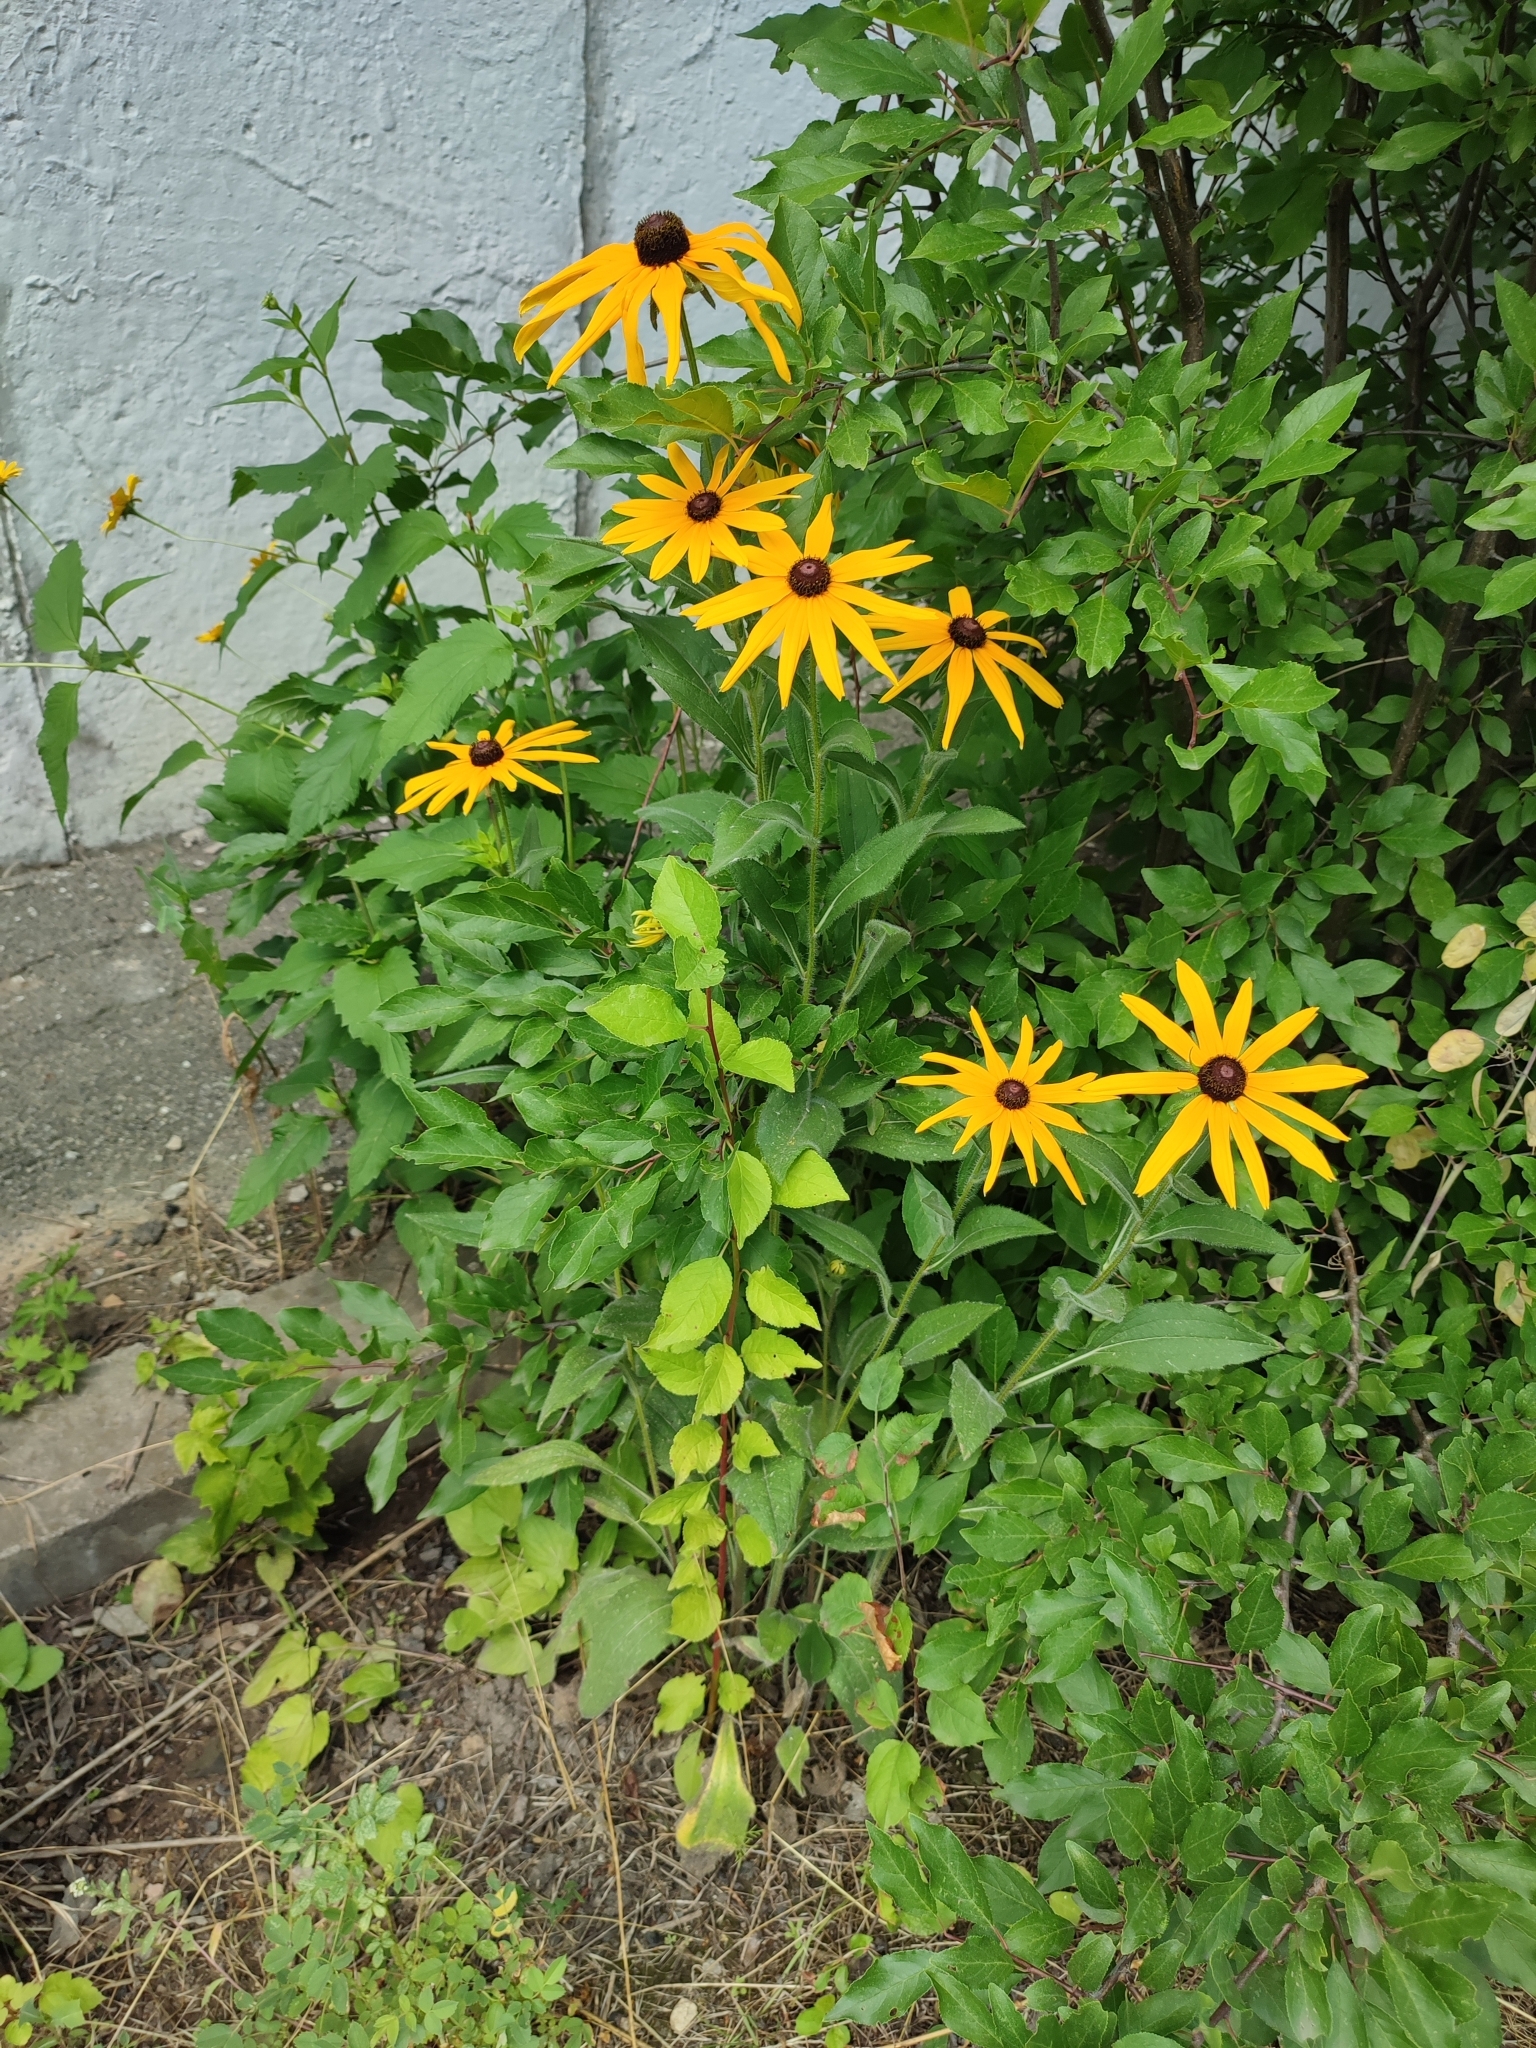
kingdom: Plantae
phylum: Tracheophyta
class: Magnoliopsida
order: Asterales
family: Asteraceae
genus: Rudbeckia
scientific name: Rudbeckia hirta
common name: Black-eyed-susan
